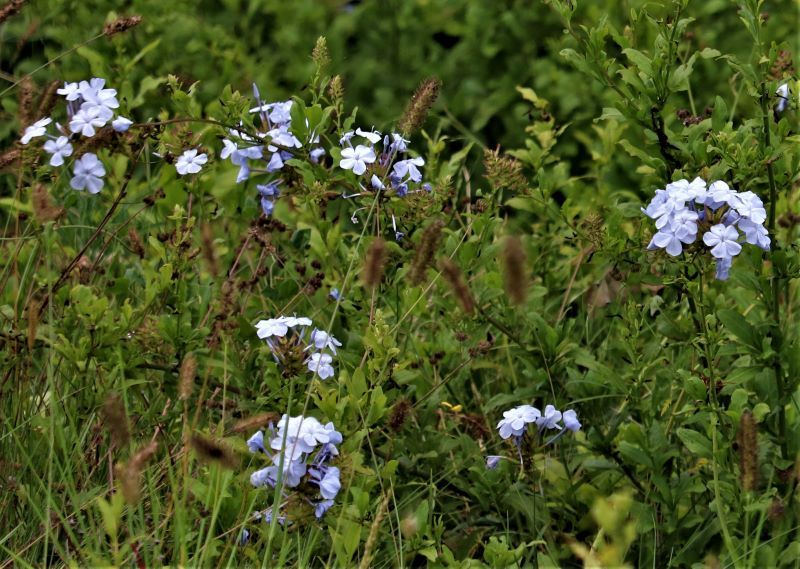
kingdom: Plantae
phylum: Tracheophyta
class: Magnoliopsida
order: Caryophyllales
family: Plumbaginaceae
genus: Plumbago
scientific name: Plumbago auriculata
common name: Cape leadwort
